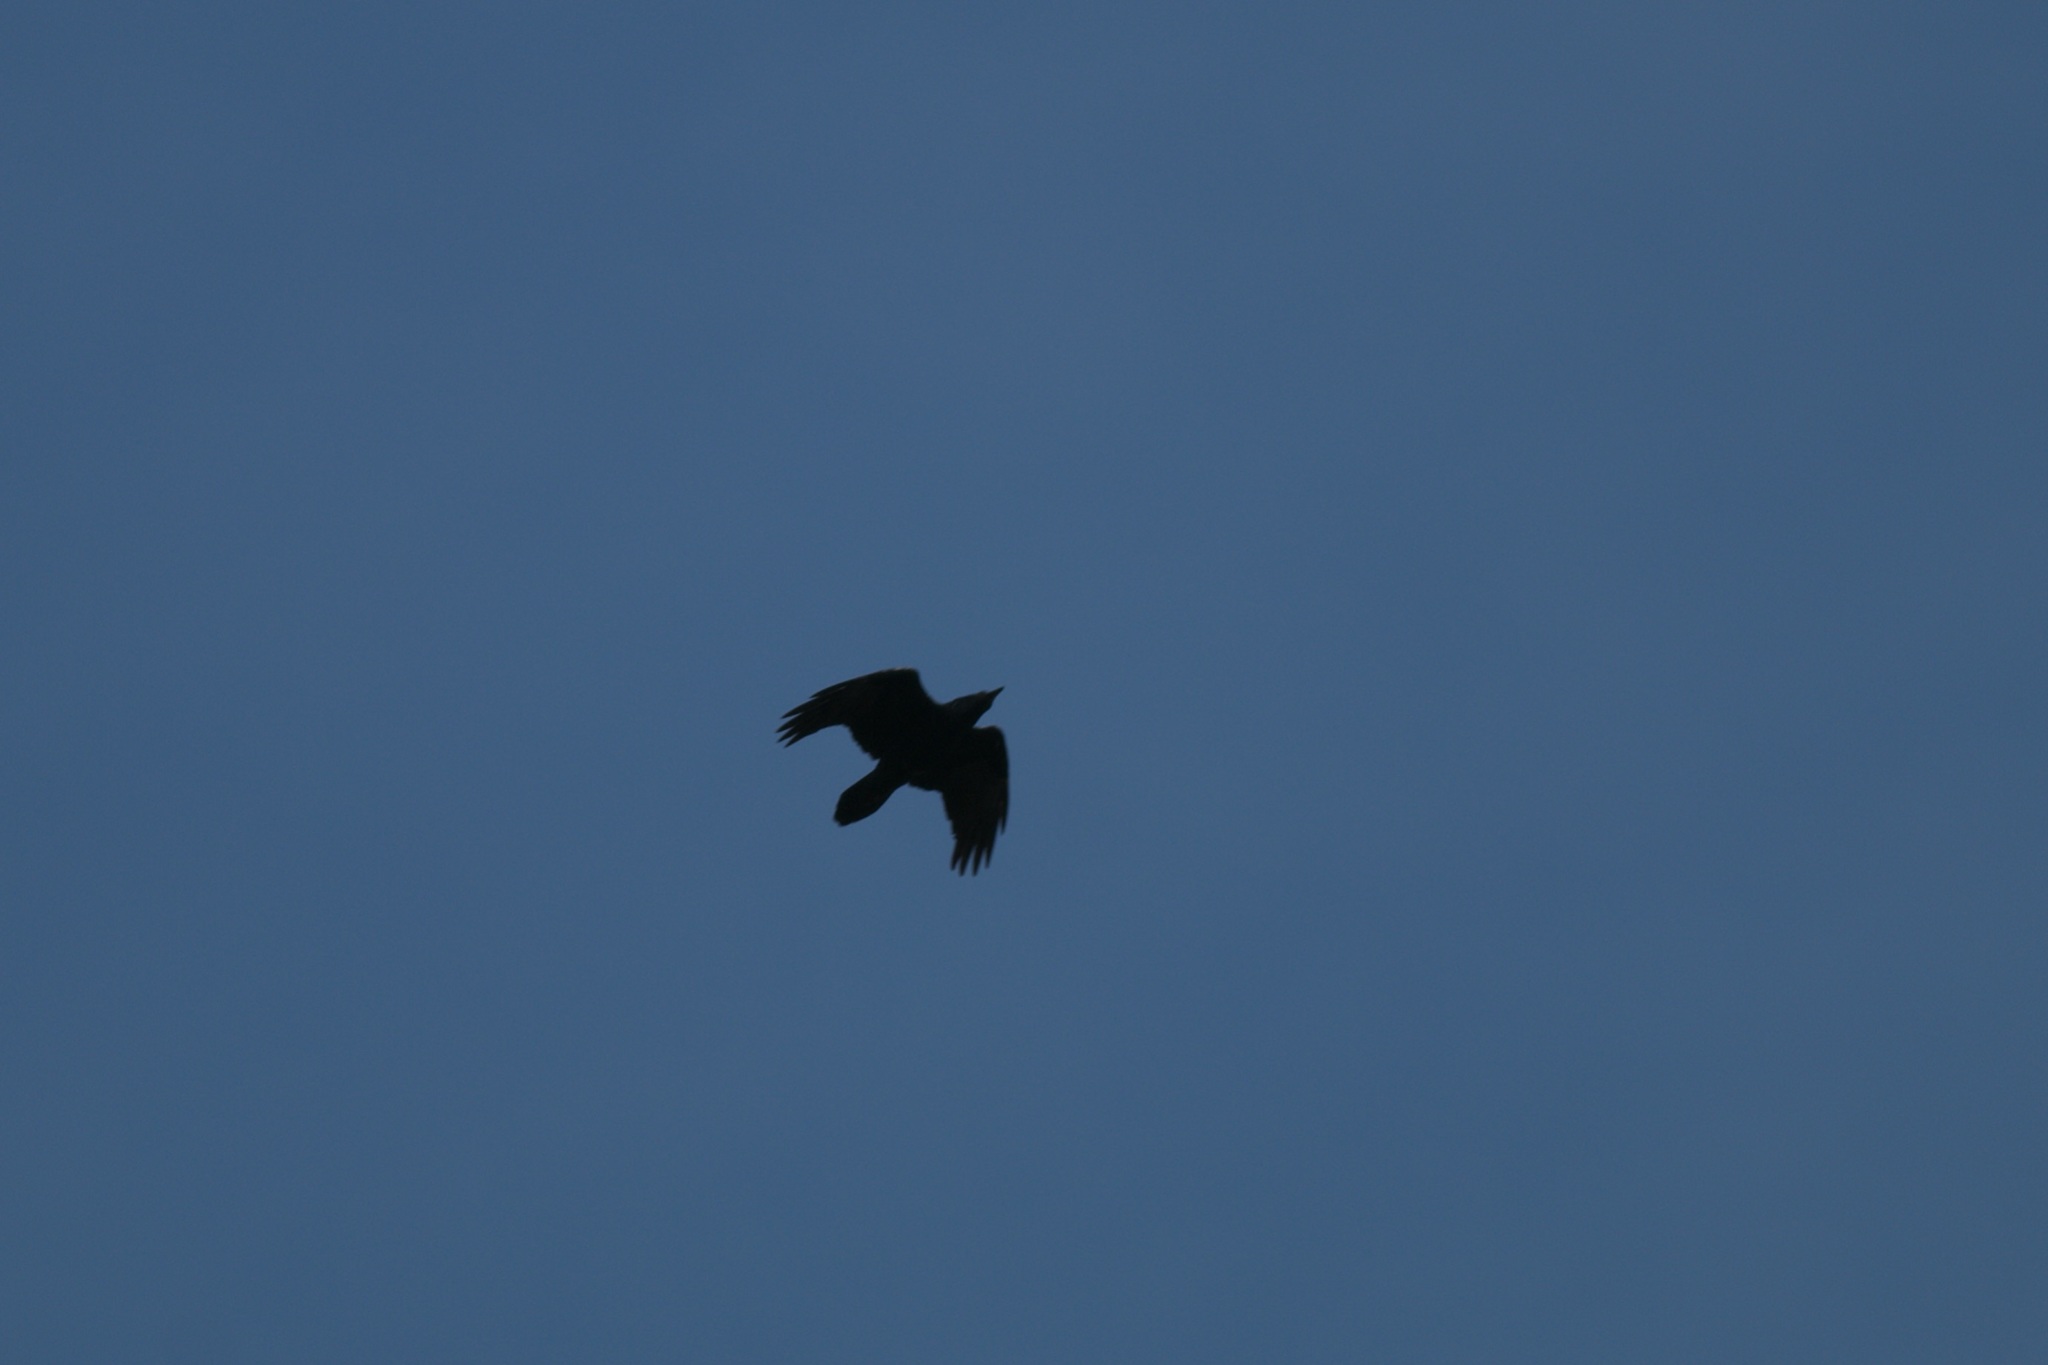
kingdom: Animalia
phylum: Chordata
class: Aves
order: Passeriformes
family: Corvidae
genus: Corvus
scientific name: Corvus corax
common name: Common raven
